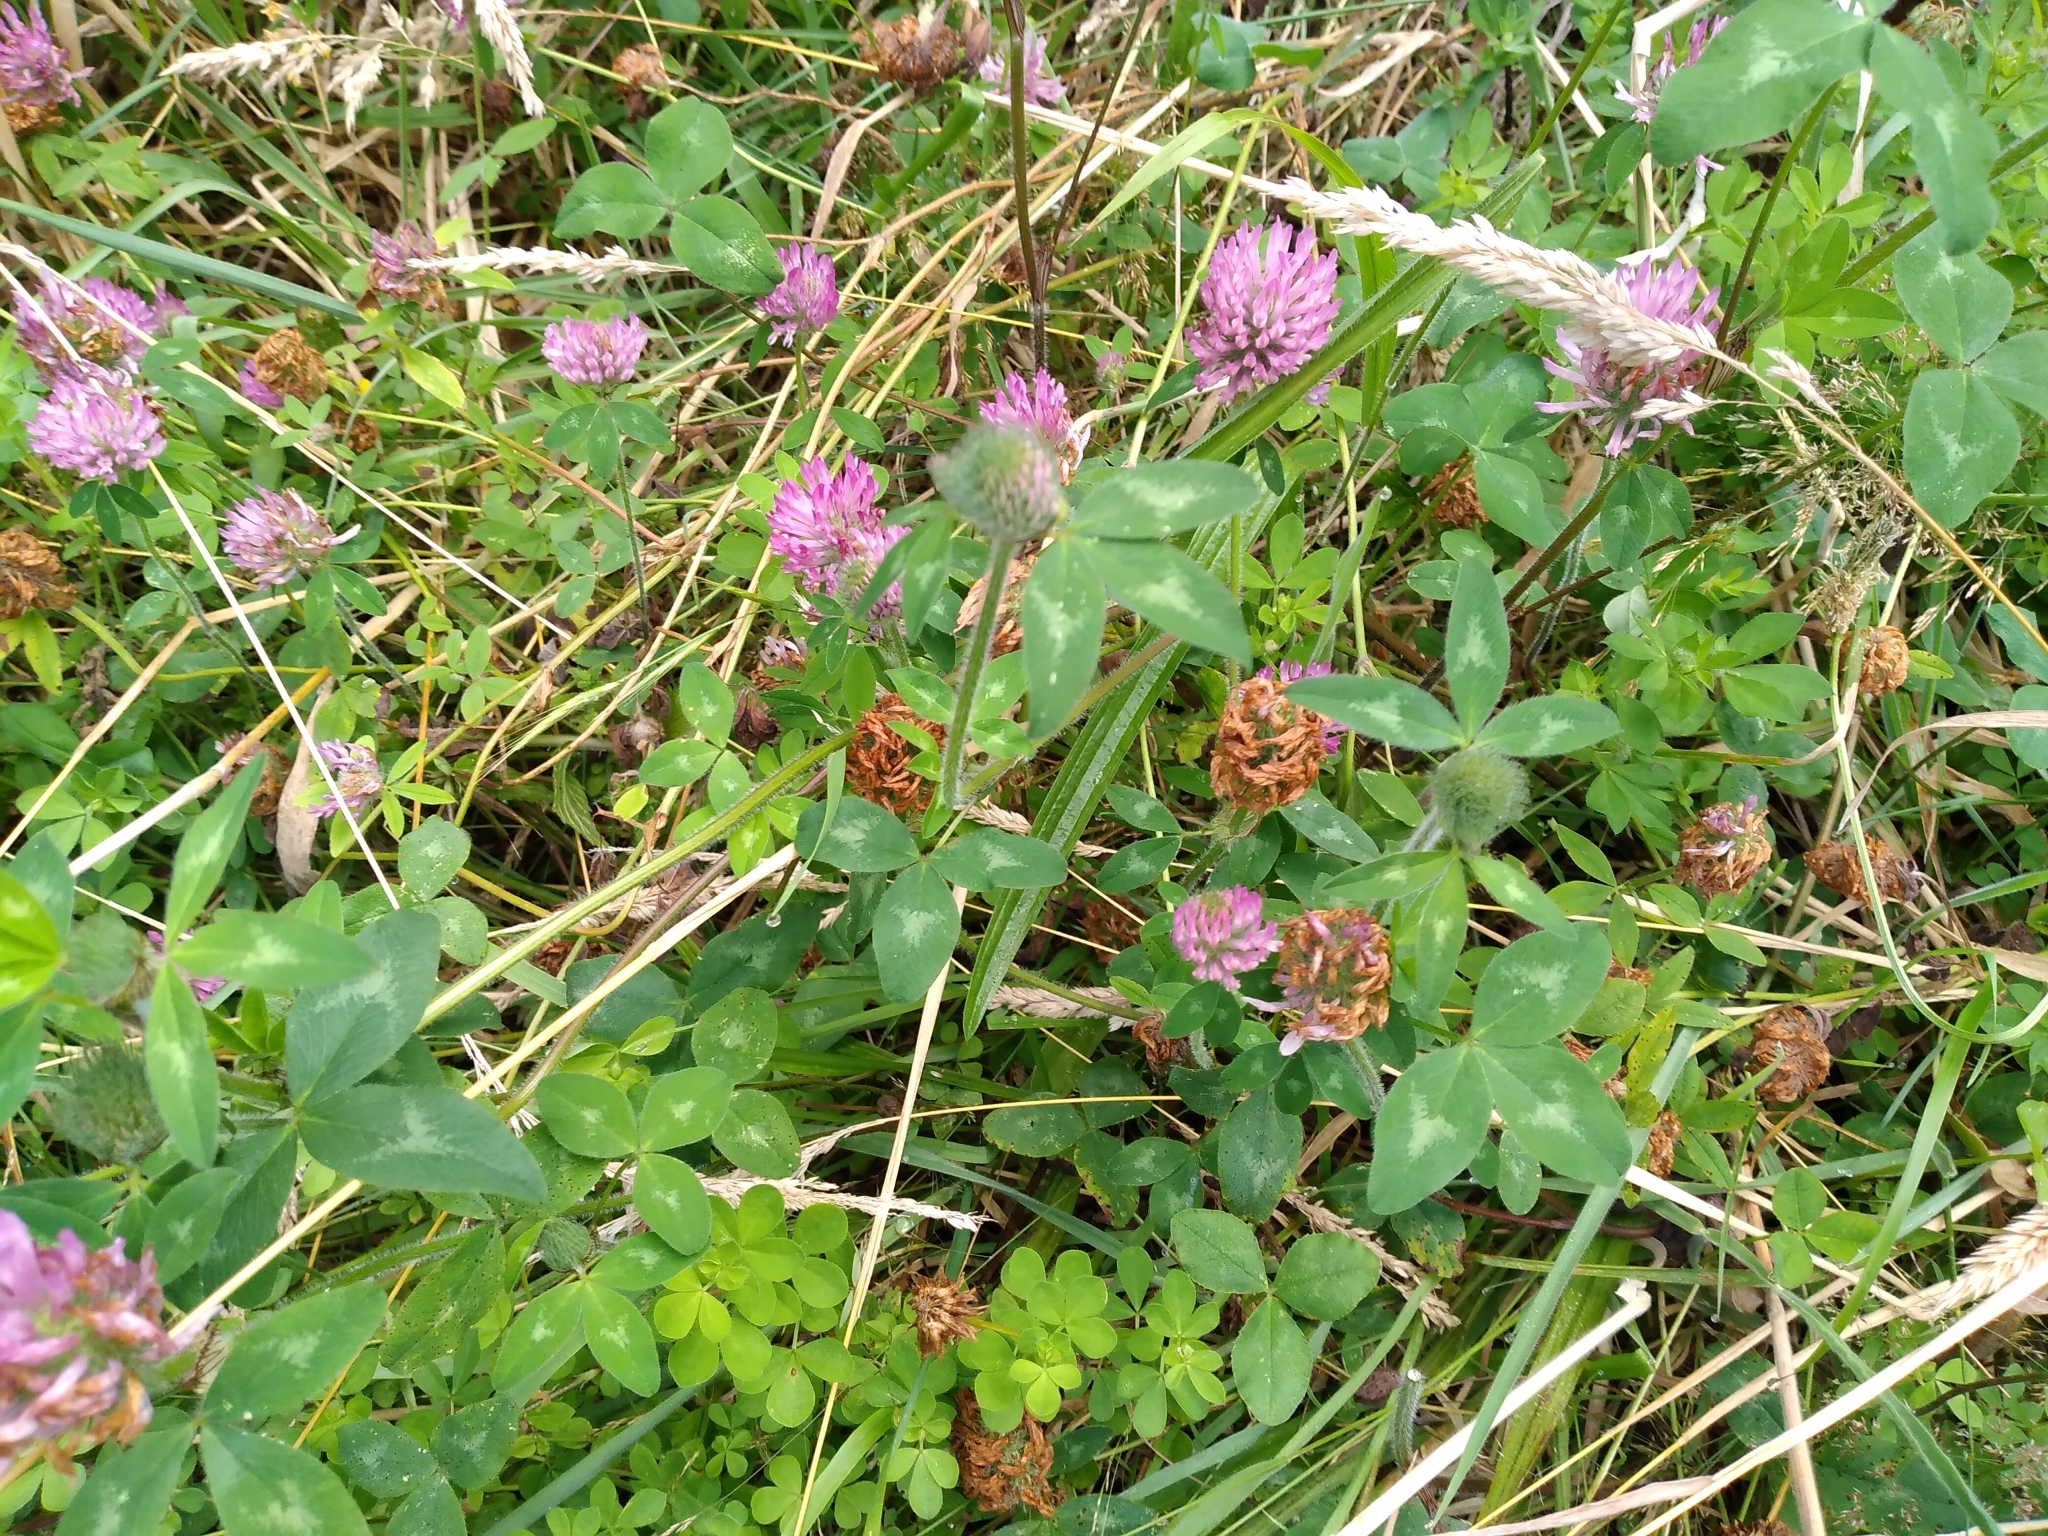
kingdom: Plantae
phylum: Tracheophyta
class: Magnoliopsida
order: Fabales
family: Fabaceae
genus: Trifolium
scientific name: Trifolium pratense
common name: Red clover
